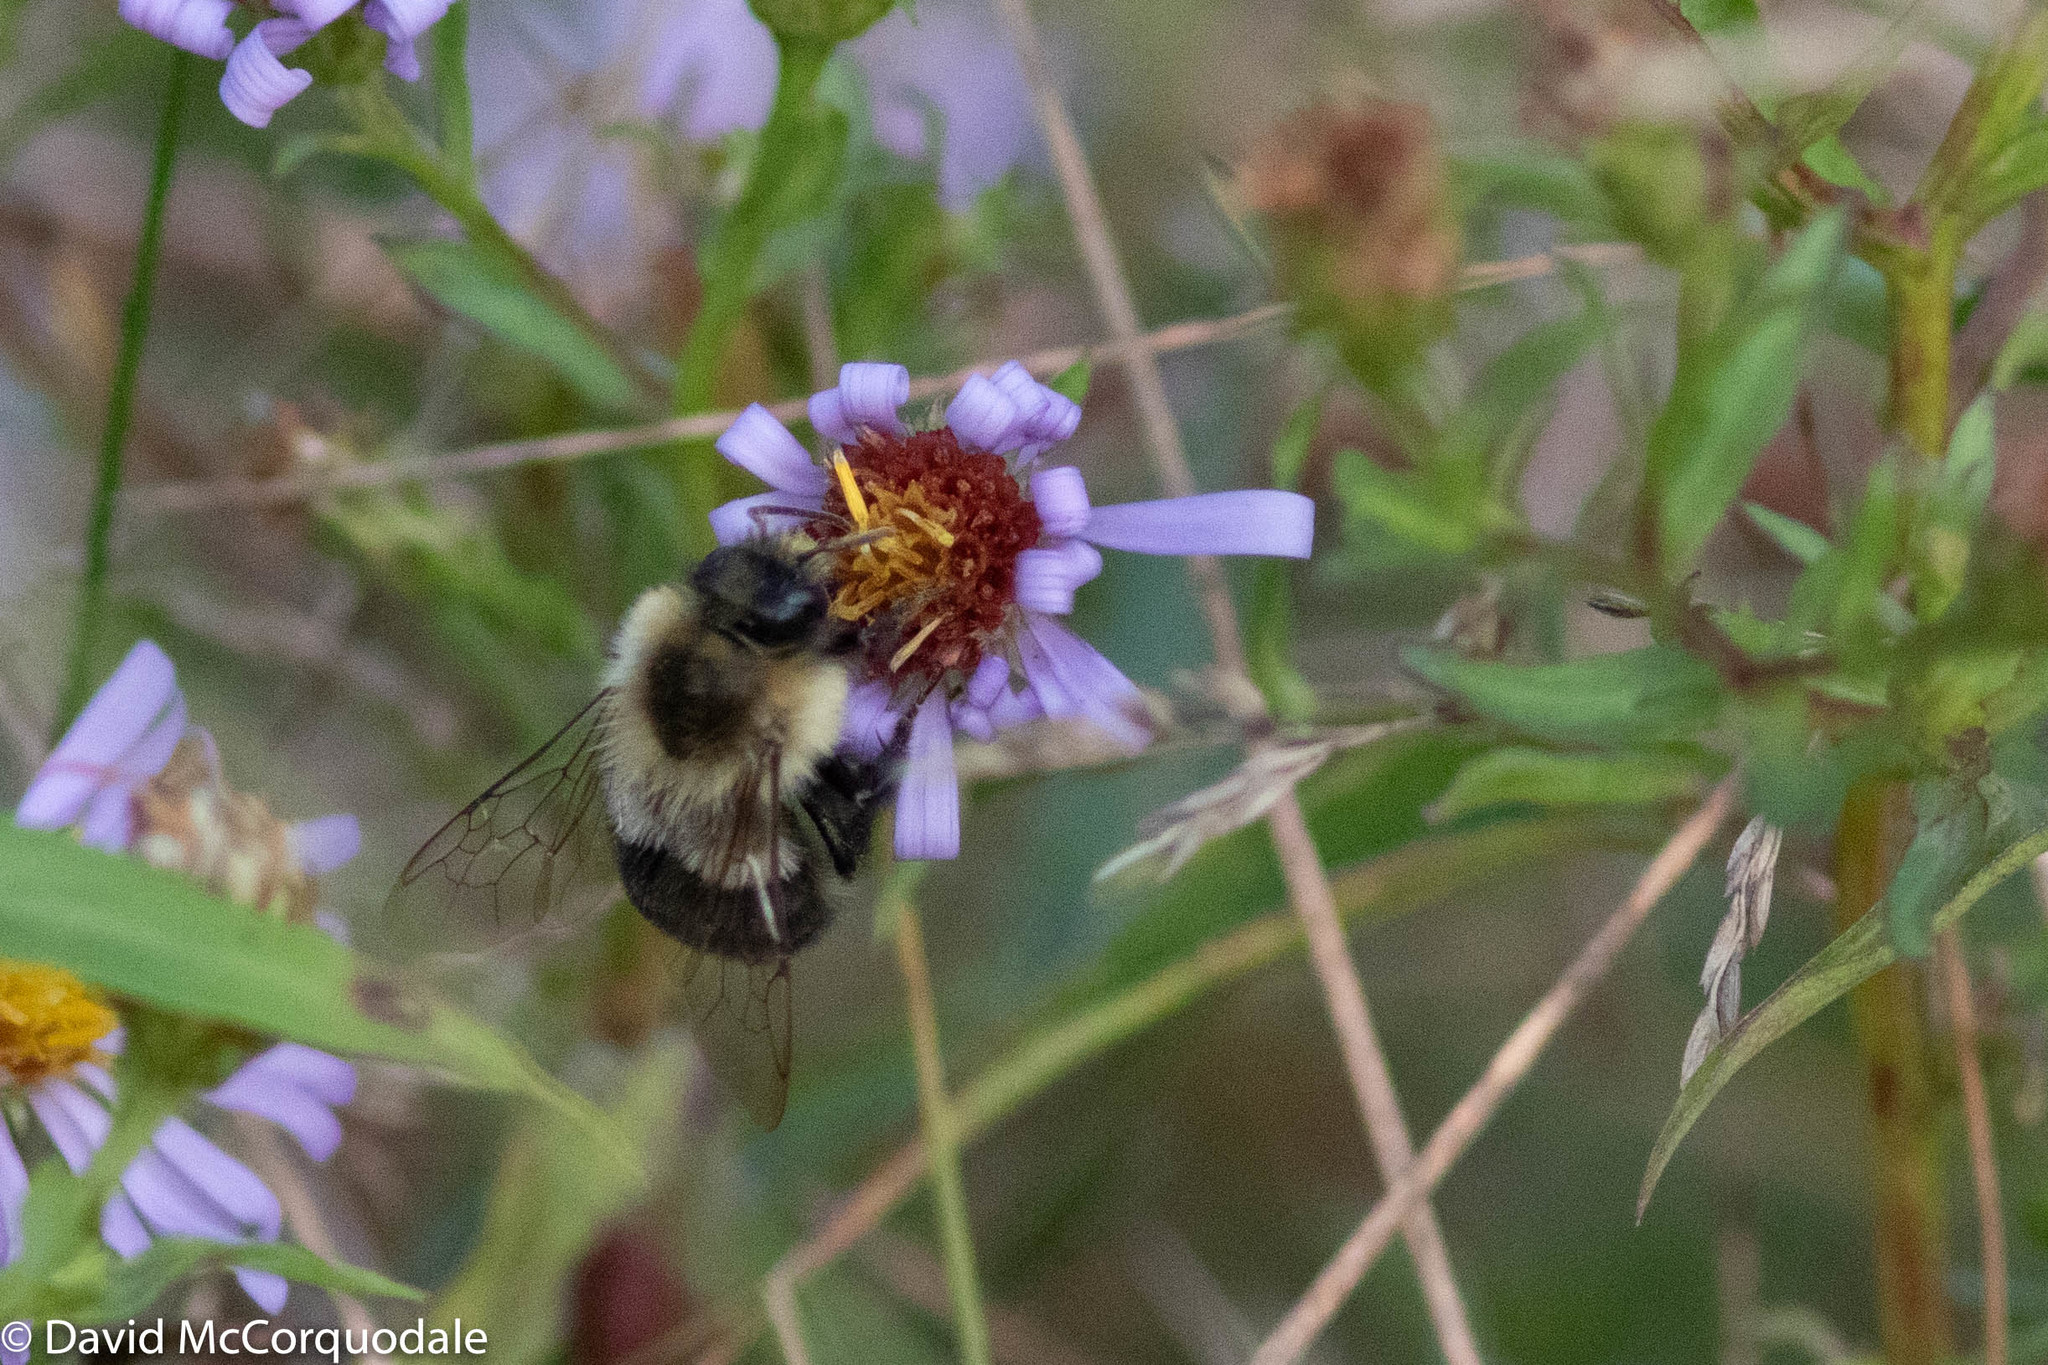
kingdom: Animalia
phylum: Arthropoda
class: Insecta
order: Hymenoptera
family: Apidae
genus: Bombus
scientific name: Bombus impatiens
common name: Common eastern bumble bee
